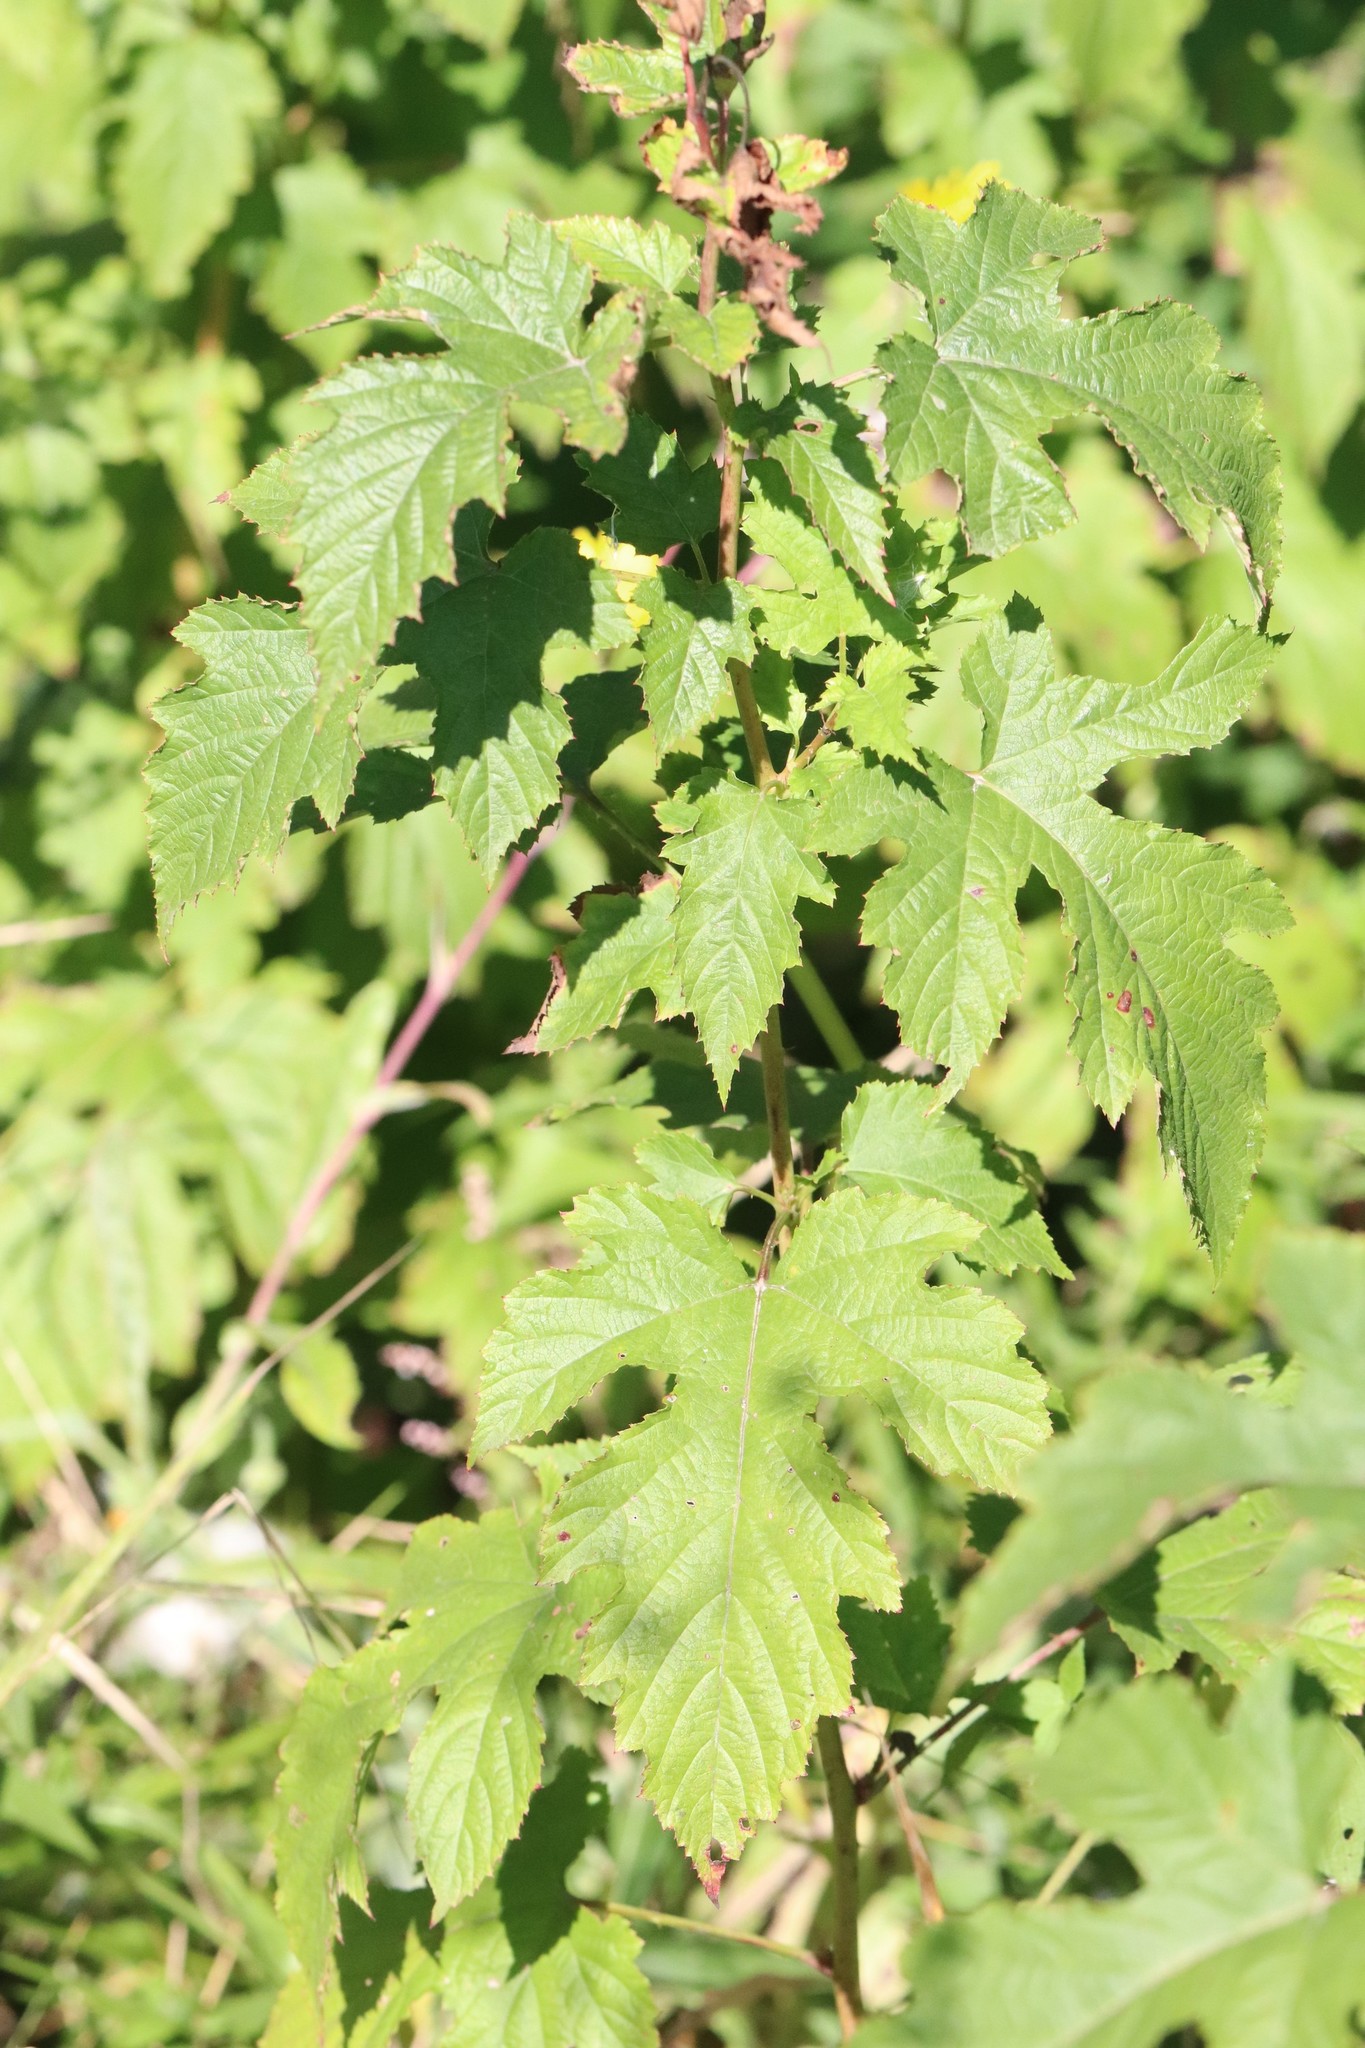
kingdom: Plantae
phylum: Tracheophyta
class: Magnoliopsida
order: Rosales
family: Rosaceae
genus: Rubus
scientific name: Rubus crataegifolius
